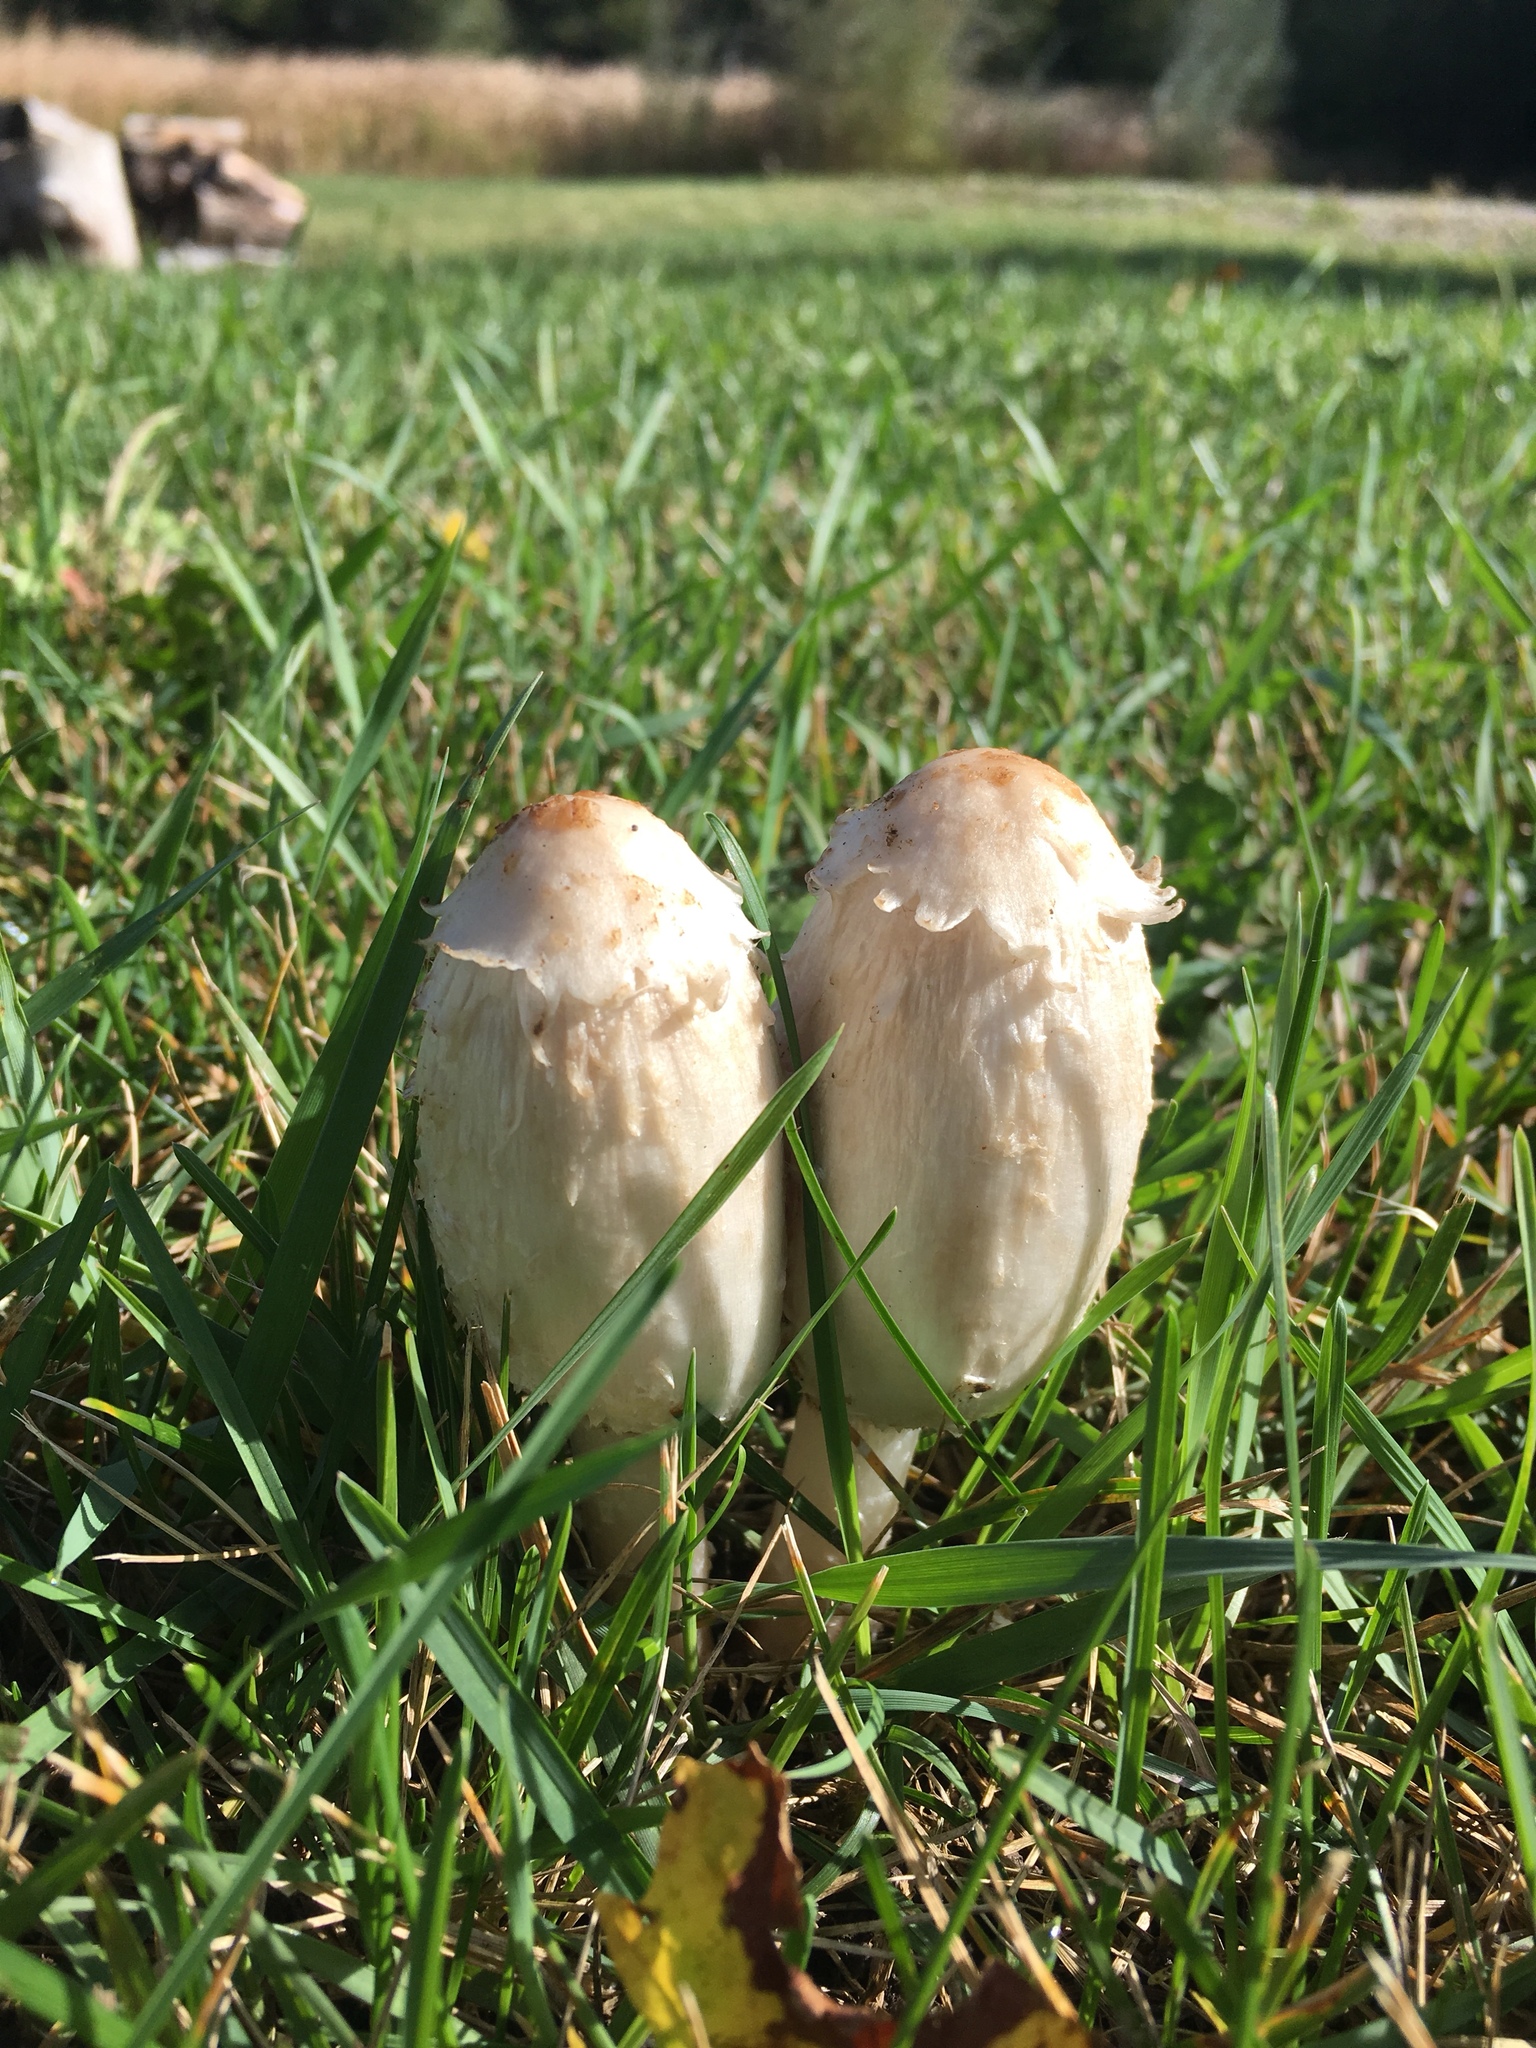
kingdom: Fungi
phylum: Basidiomycota
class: Agaricomycetes
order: Agaricales
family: Agaricaceae
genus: Coprinus
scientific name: Coprinus comatus
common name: Lawyer's wig
